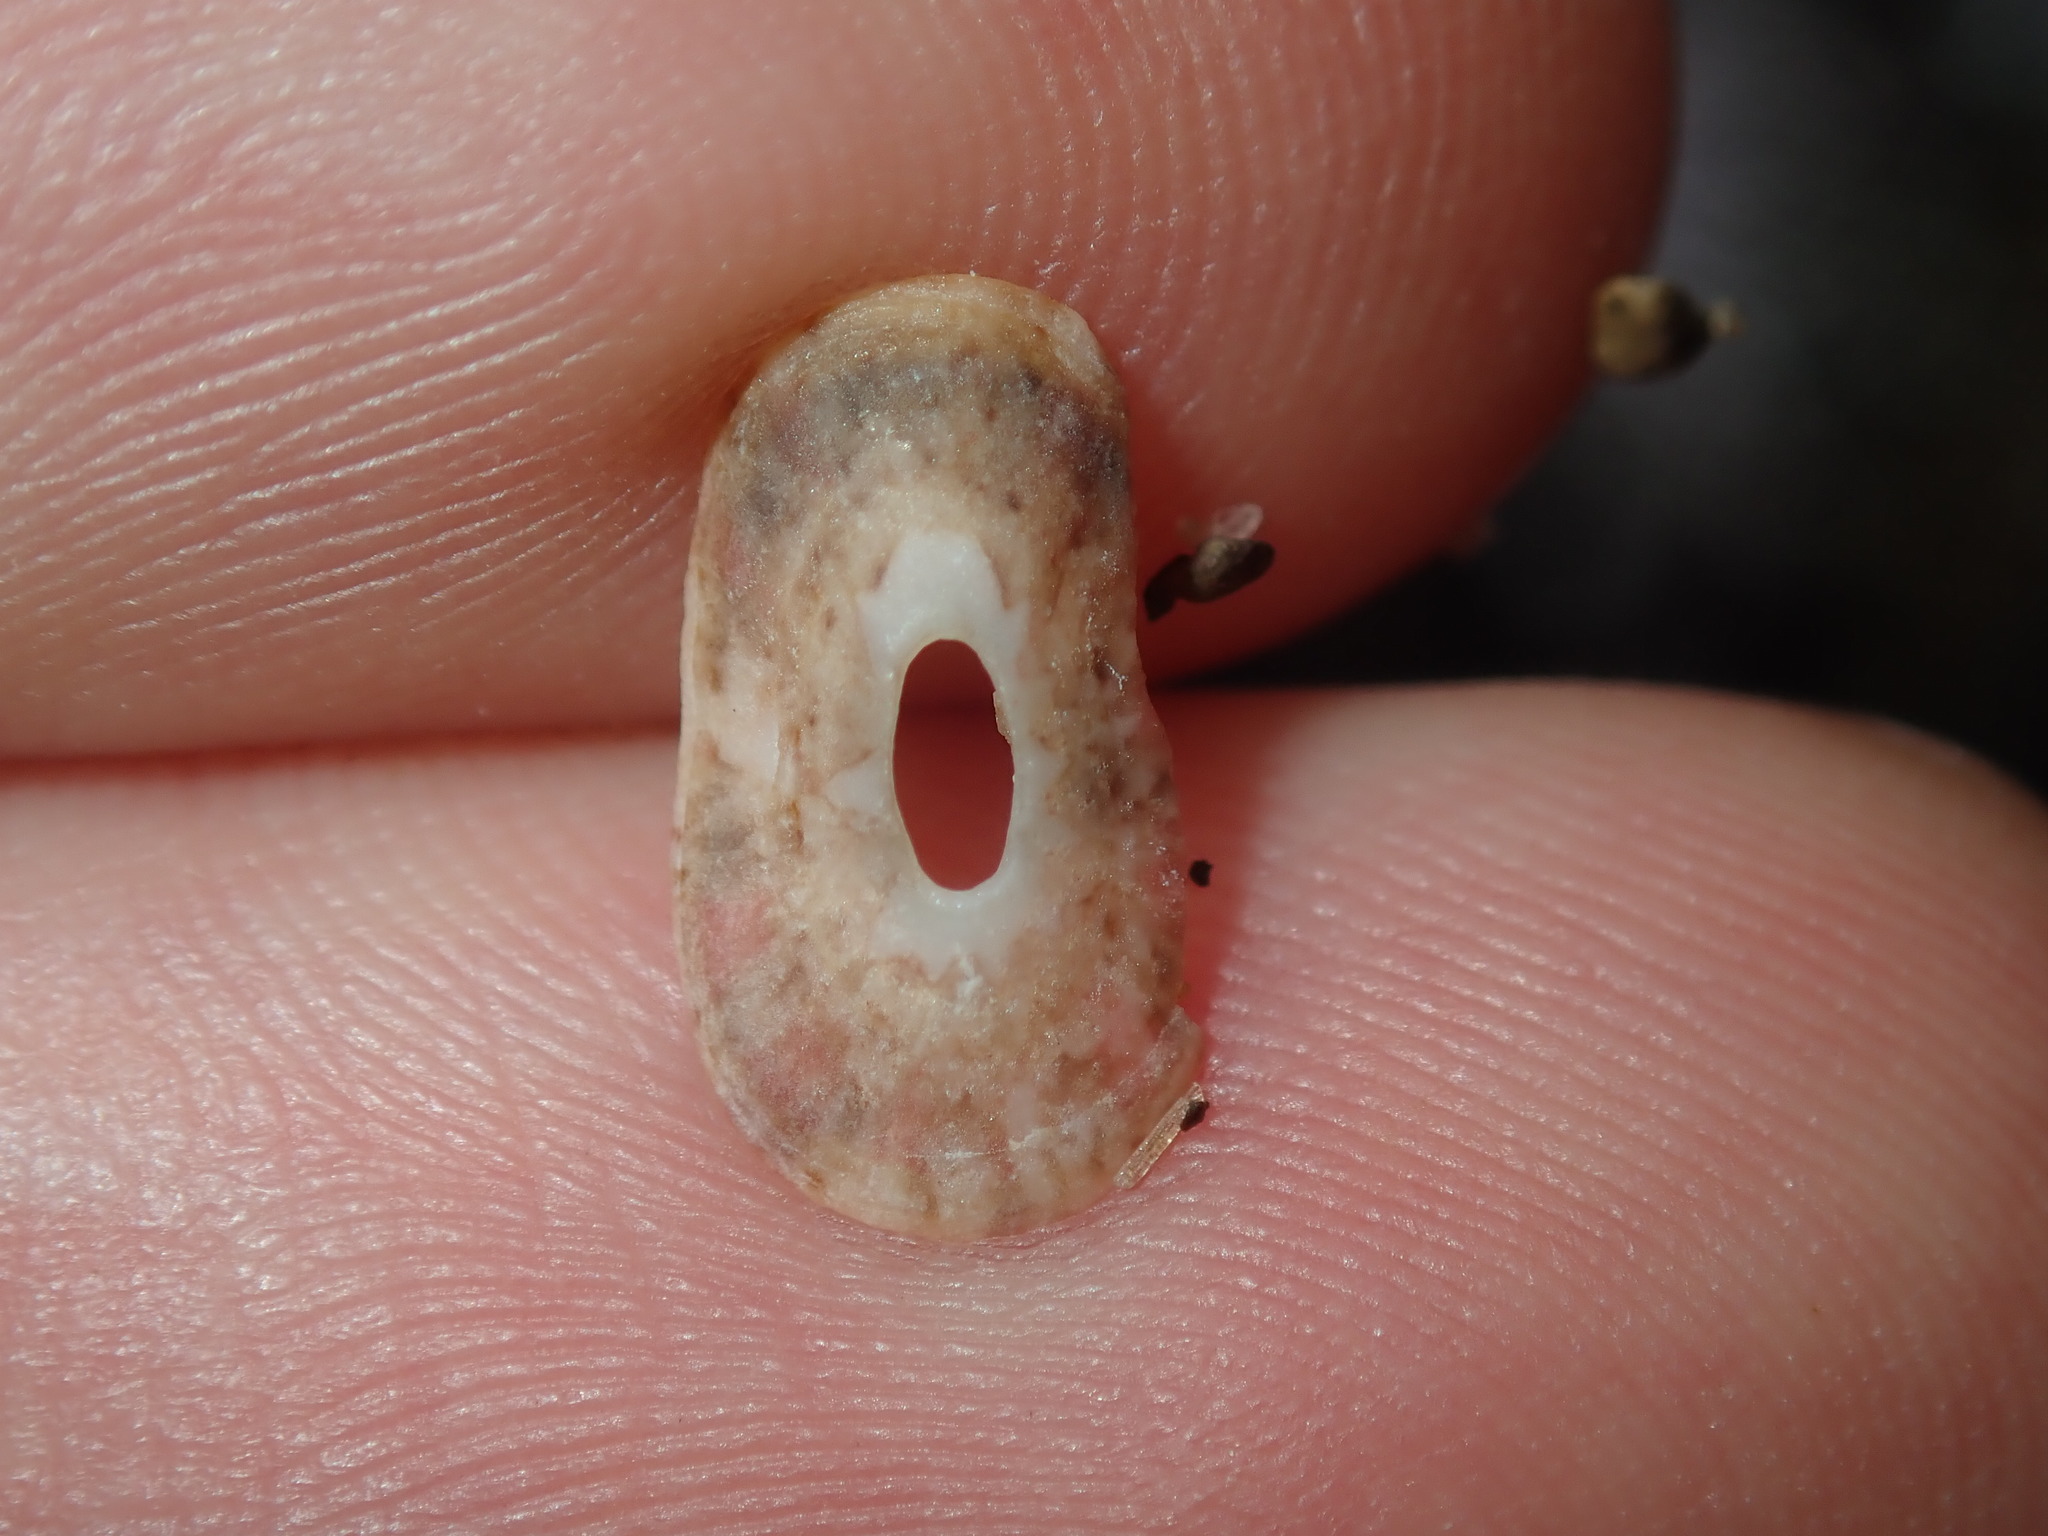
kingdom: Animalia
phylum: Mollusca
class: Gastropoda
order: Lepetellida
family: Fissurellidae
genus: Amblychilepas
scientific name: Amblychilepas nigrita
